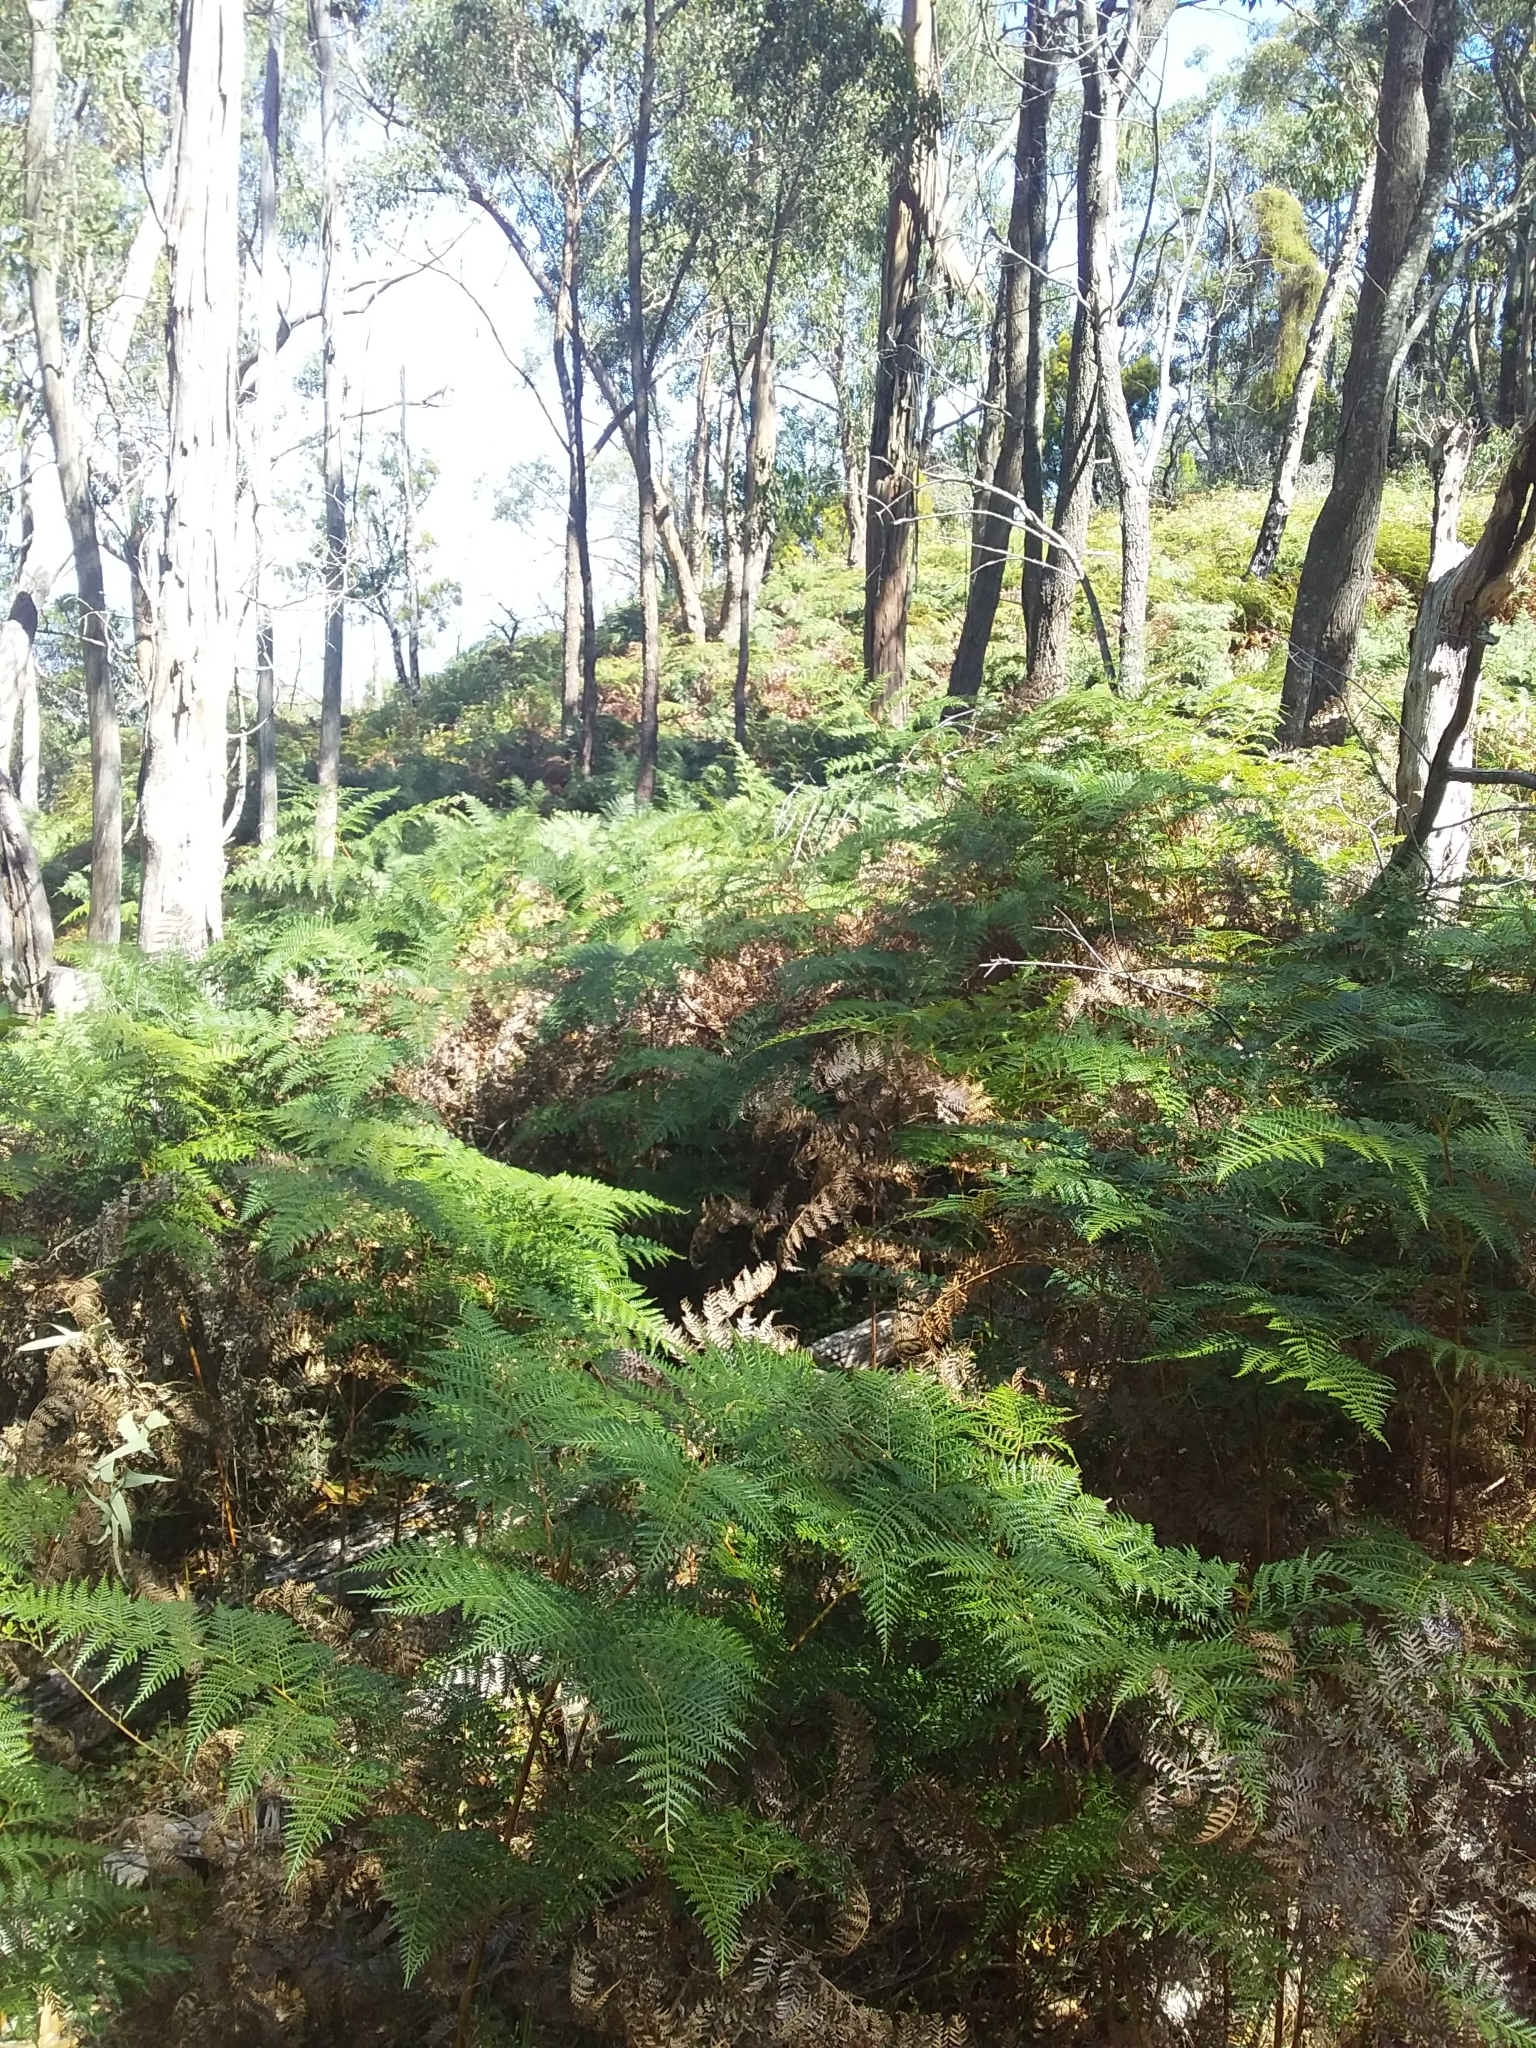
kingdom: Plantae
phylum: Tracheophyta
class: Polypodiopsida
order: Polypodiales
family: Dennstaedtiaceae
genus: Pteridium
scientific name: Pteridium esculentum
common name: Bracken fern
